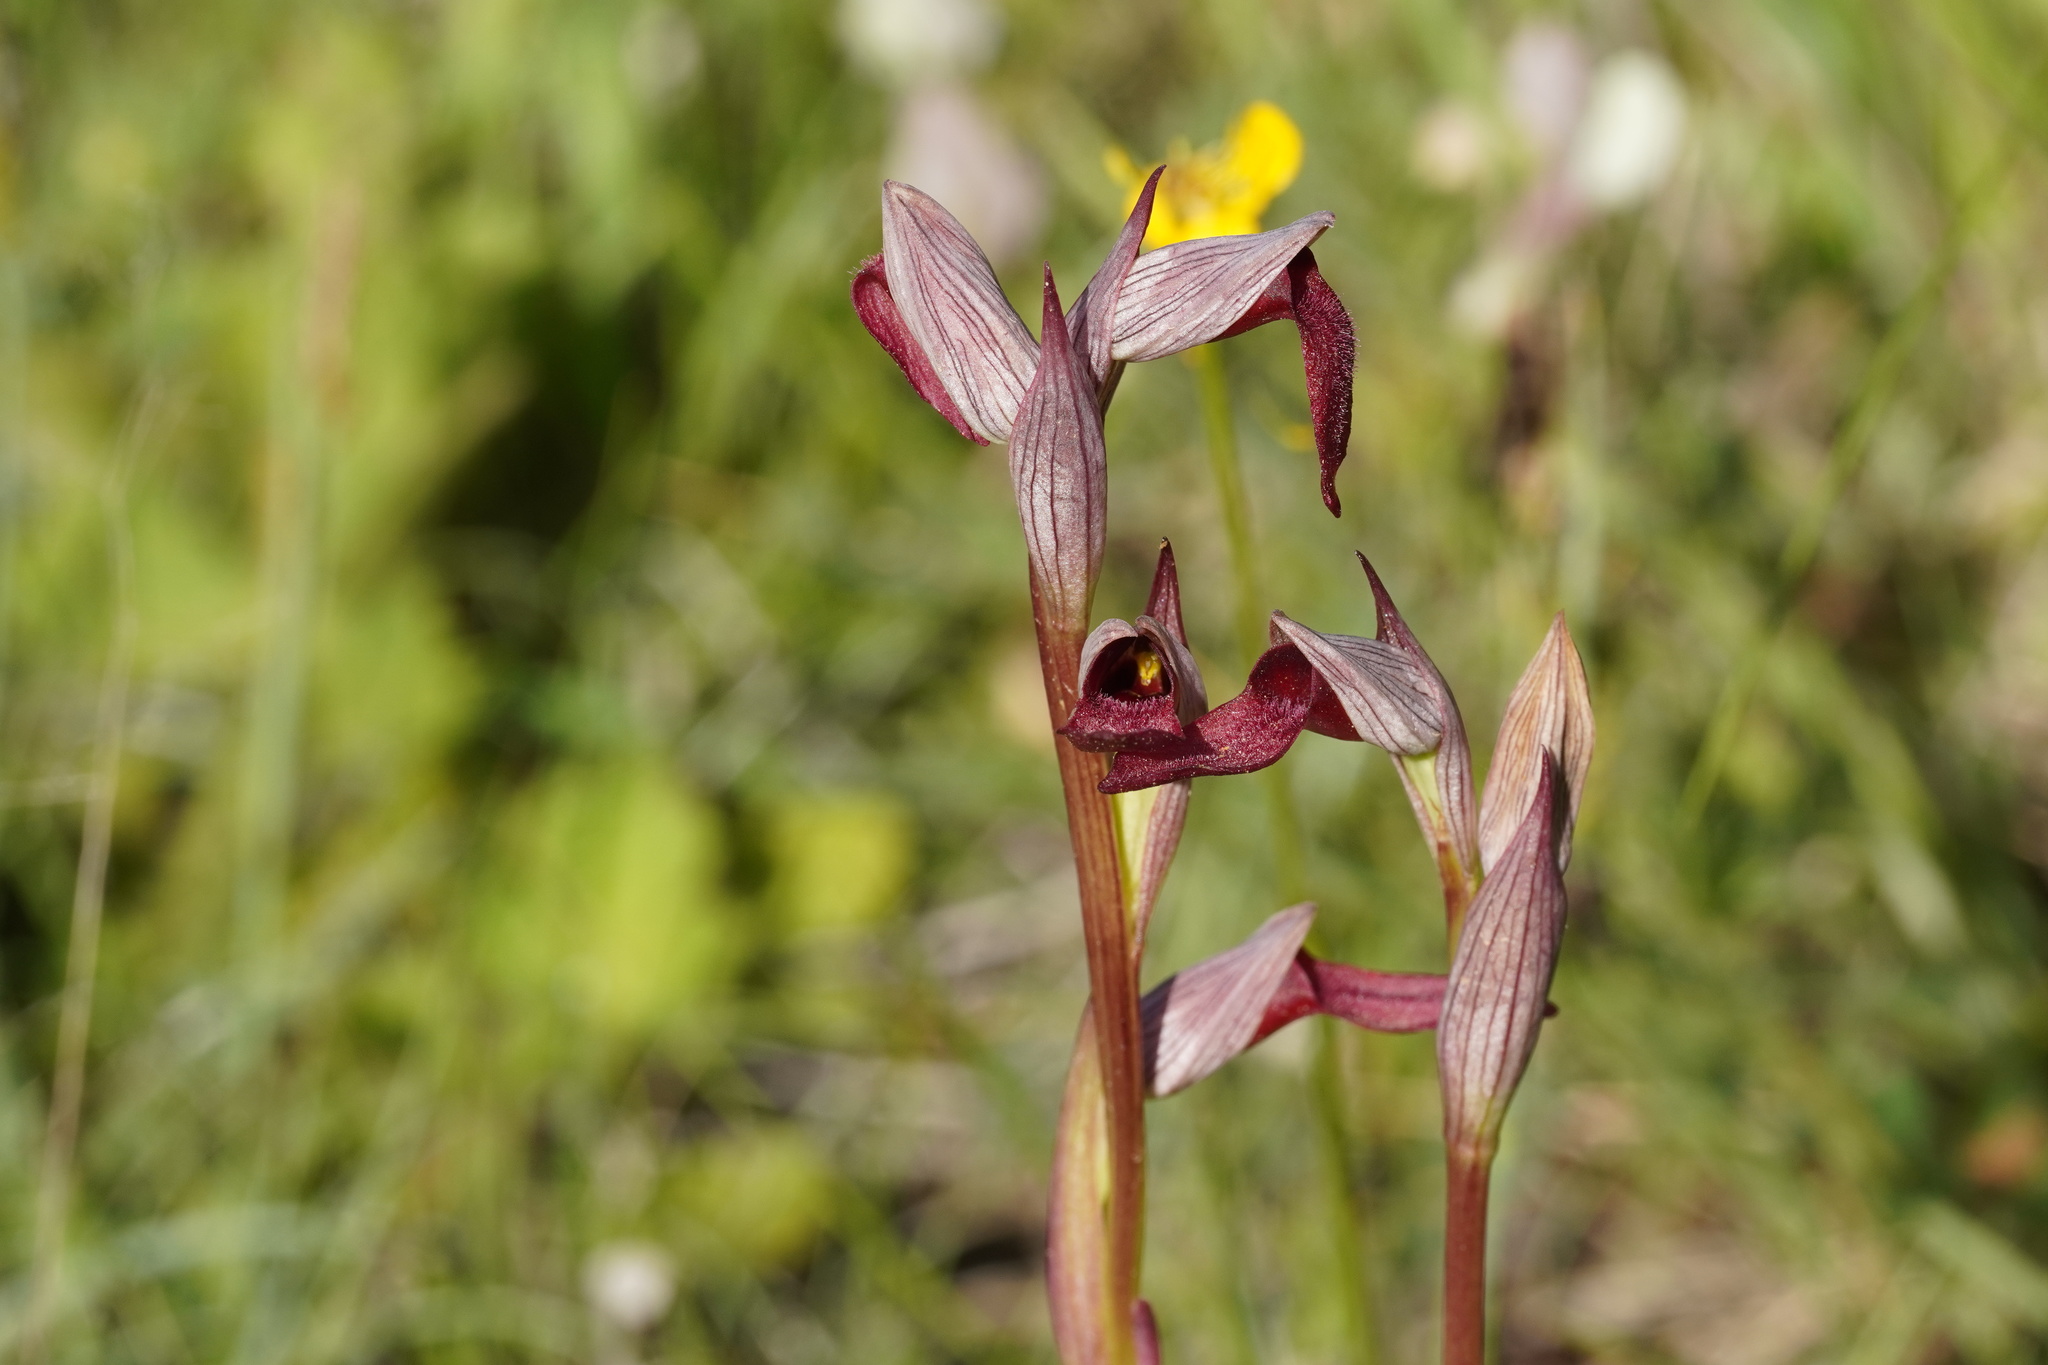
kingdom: Plantae
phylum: Tracheophyta
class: Liliopsida
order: Asparagales
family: Orchidaceae
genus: Serapias
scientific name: Serapias strictiflora
